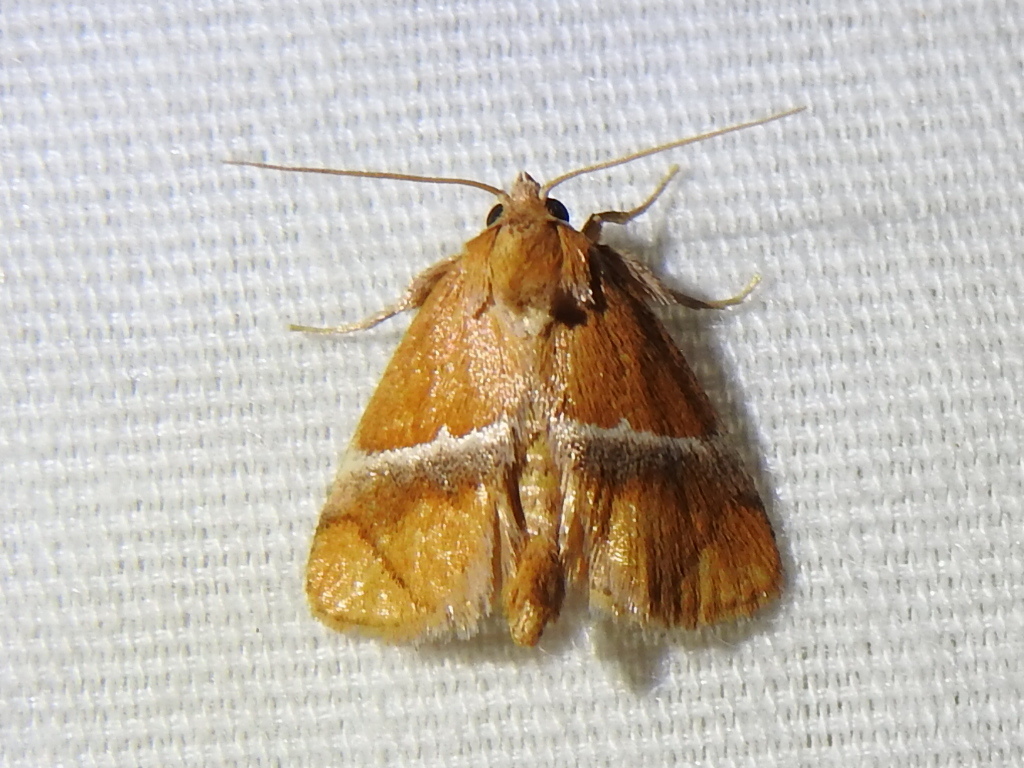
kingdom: Animalia
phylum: Arthropoda
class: Insecta
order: Lepidoptera
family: Limacodidae
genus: Lithacodes
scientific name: Lithacodes fasciola
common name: Yellow-shouldered slug moth
